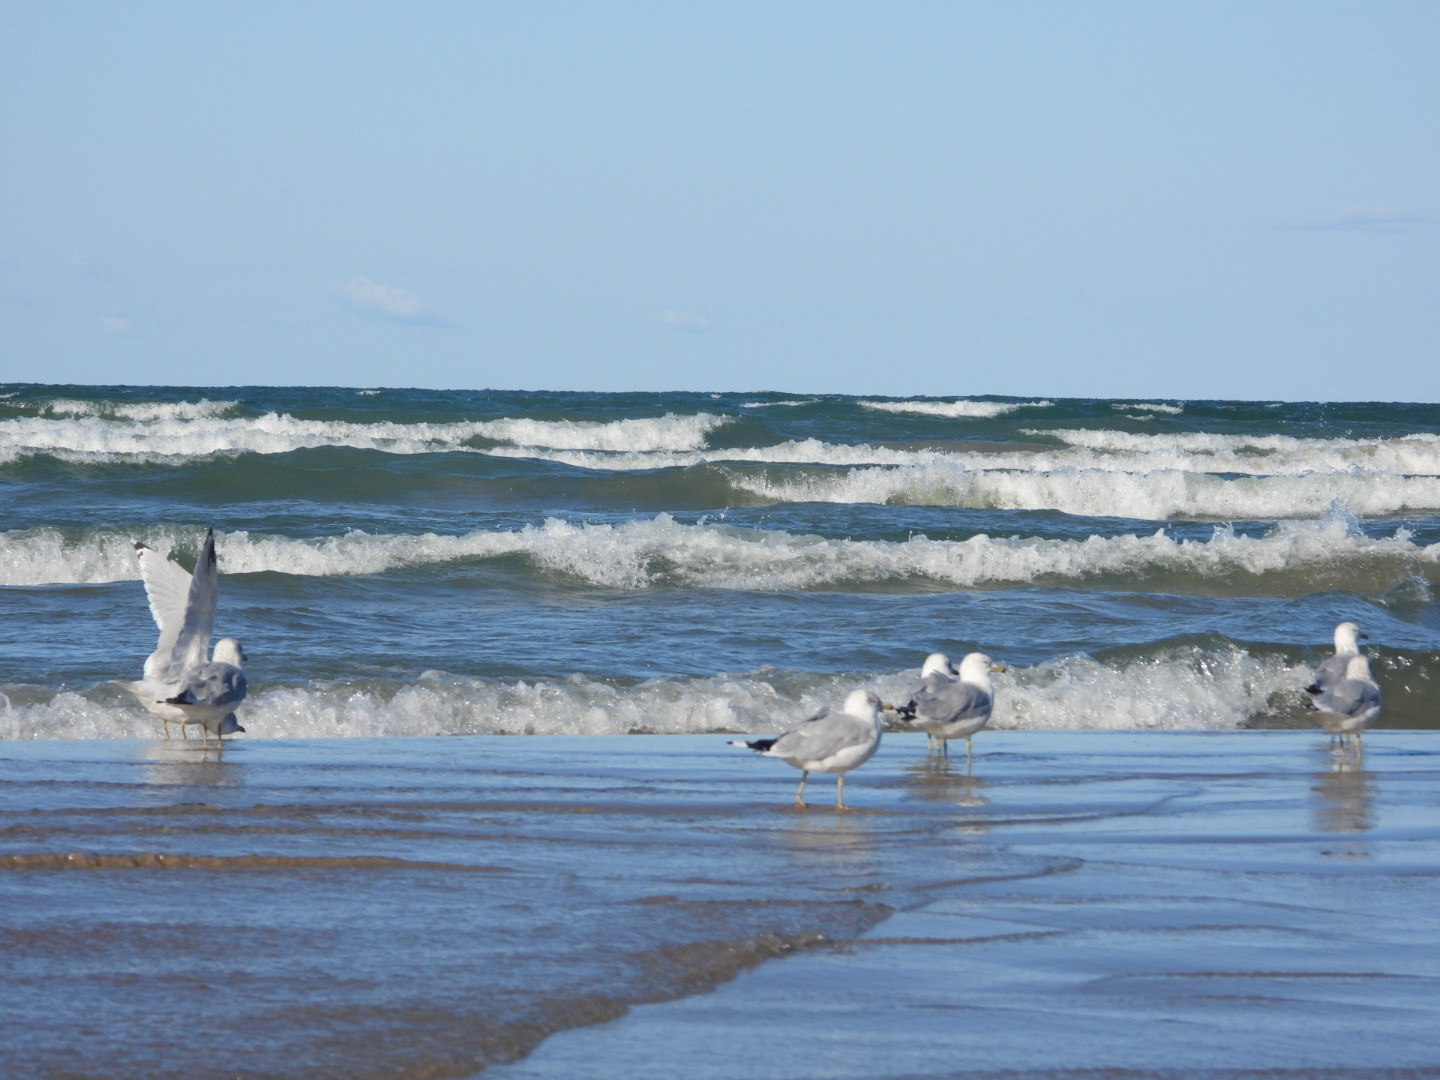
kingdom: Animalia
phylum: Chordata
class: Aves
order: Charadriiformes
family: Laridae
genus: Larus
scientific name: Larus delawarensis
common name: Ring-billed gull
